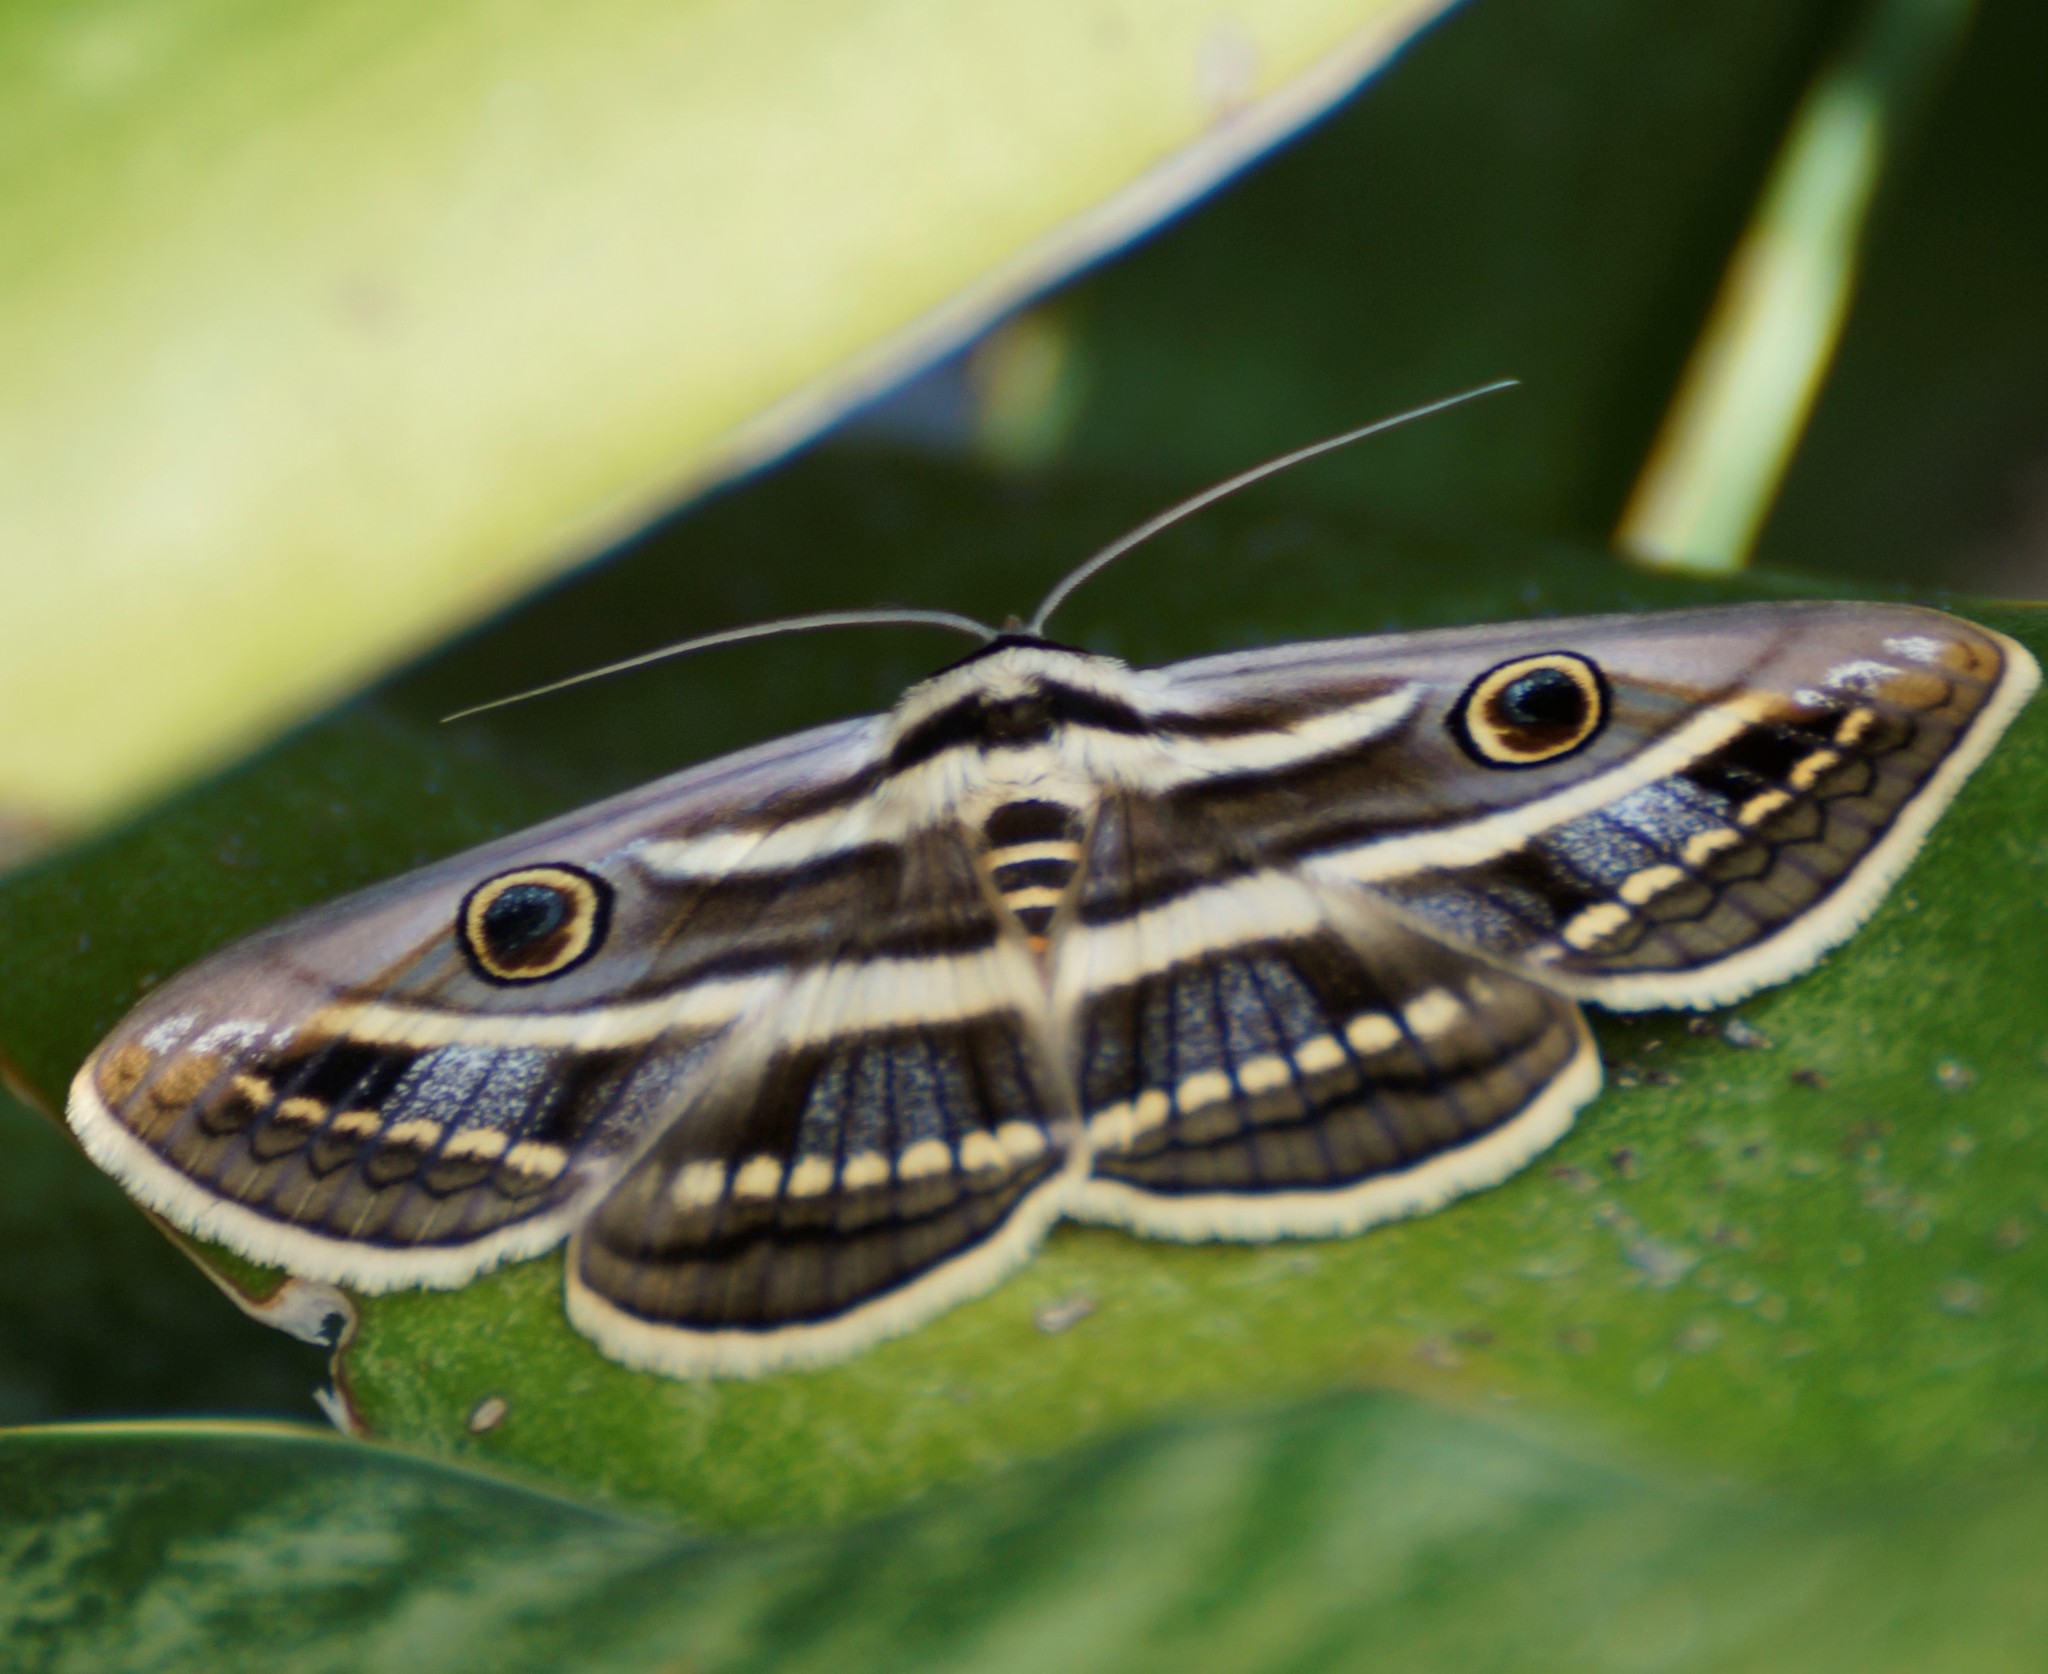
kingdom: Animalia
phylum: Arthropoda
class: Insecta
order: Lepidoptera
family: Erebidae
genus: Donuca
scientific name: Donuca orbigera
